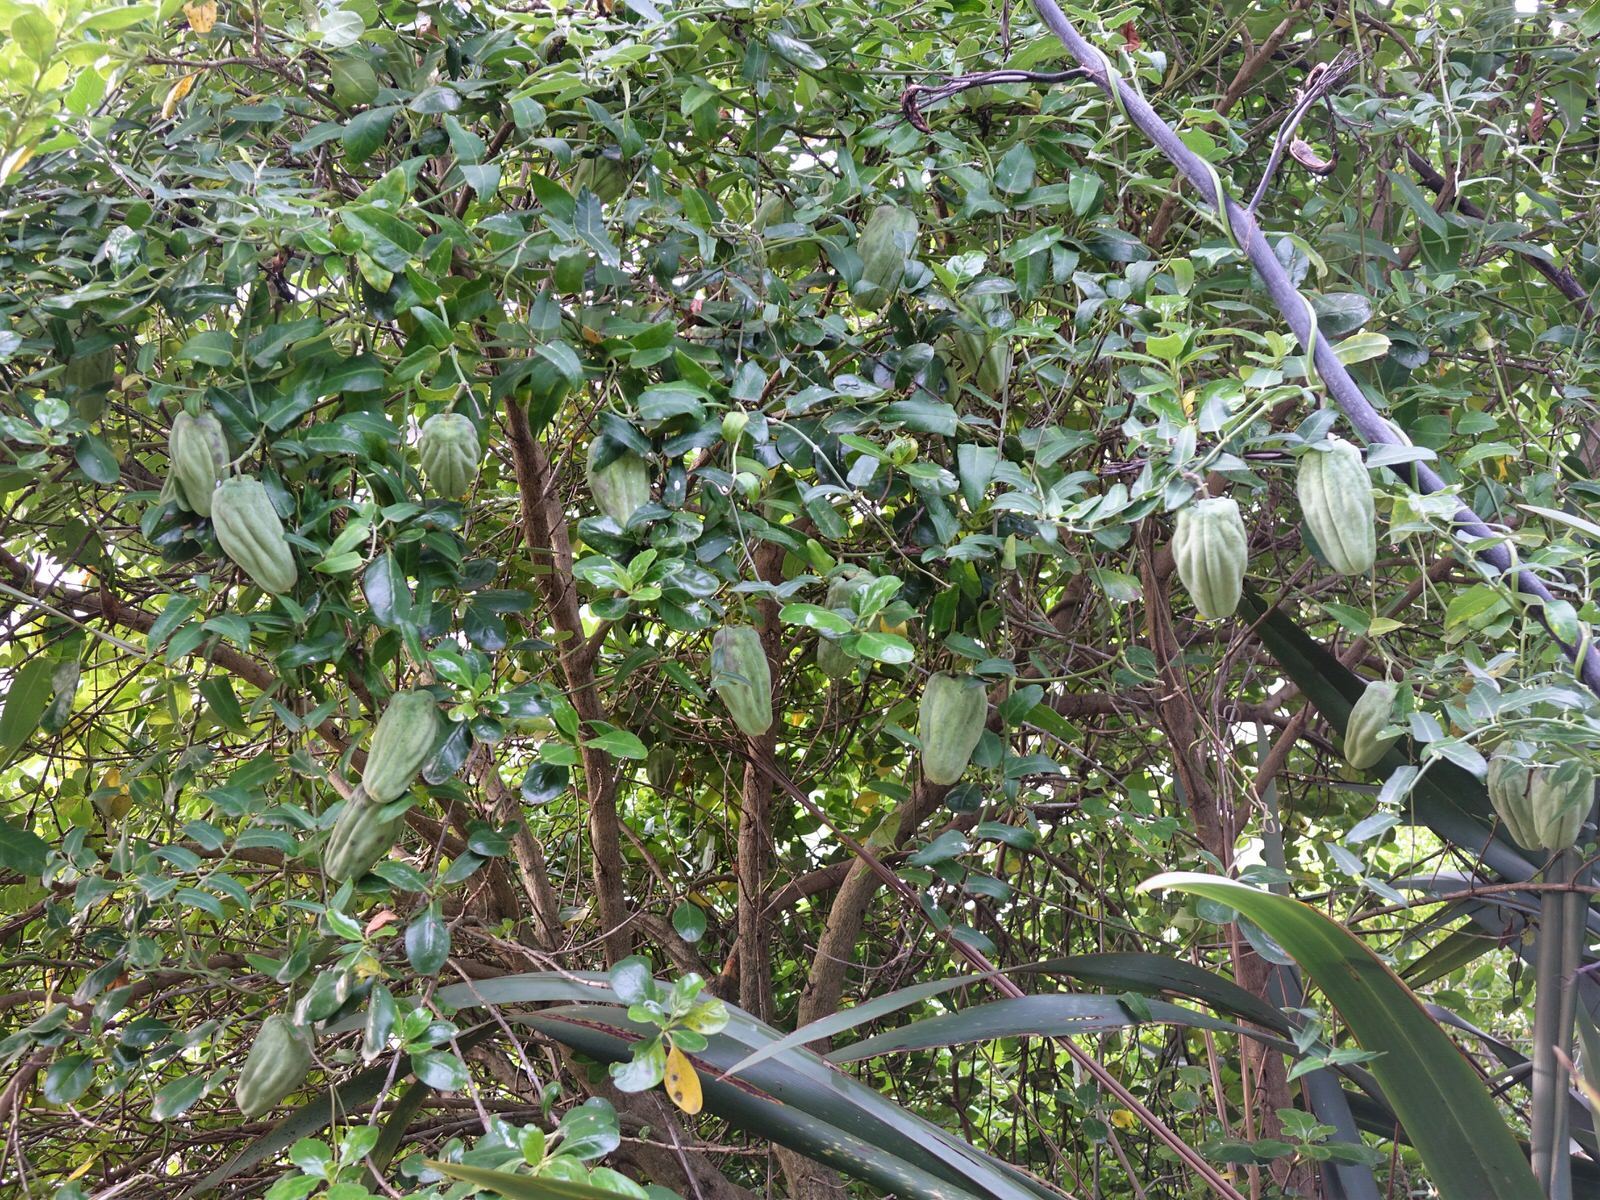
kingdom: Plantae
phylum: Tracheophyta
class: Magnoliopsida
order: Gentianales
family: Apocynaceae
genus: Araujia
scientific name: Araujia sericifera
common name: White bladderflower
